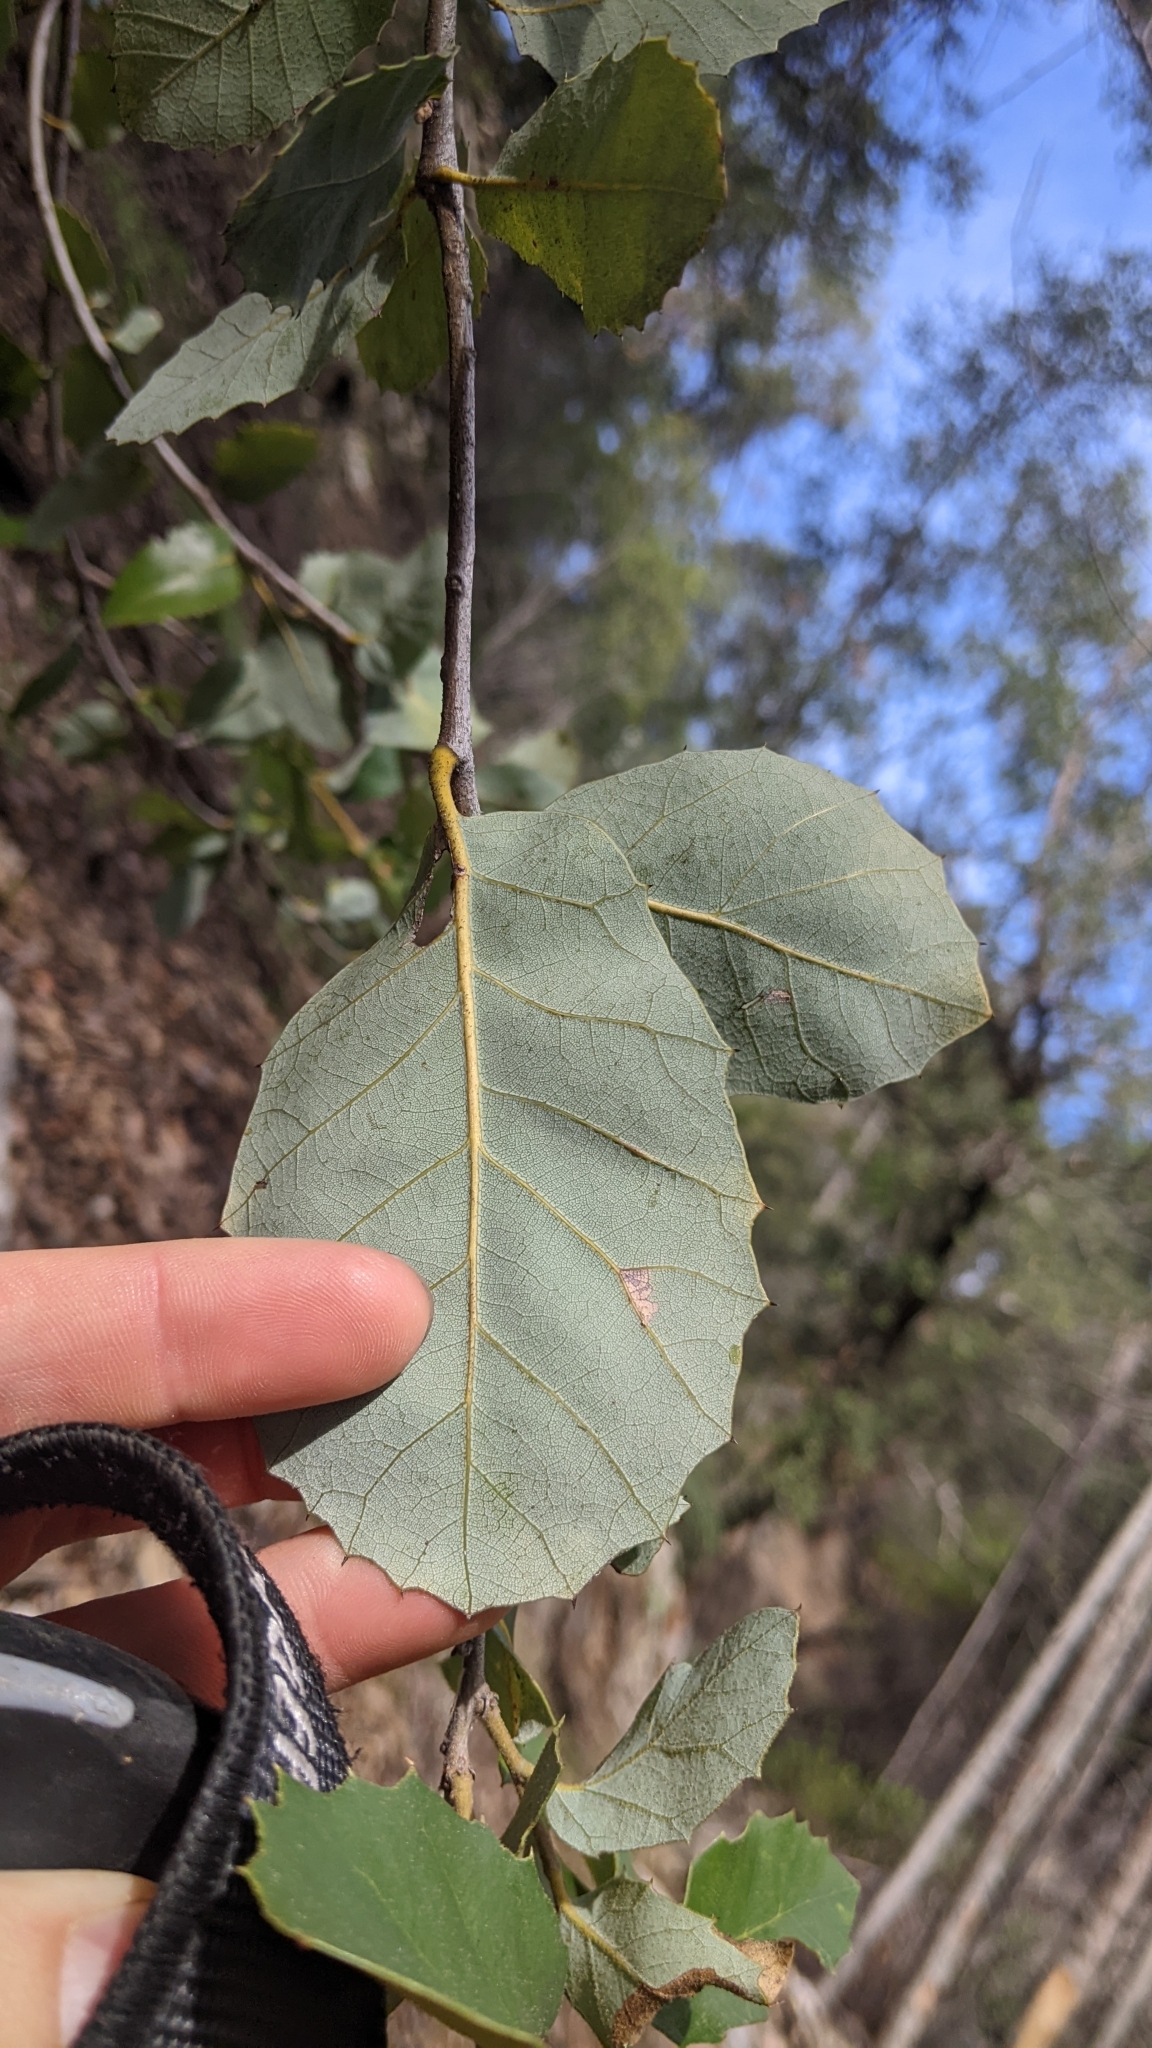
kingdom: Plantae
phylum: Tracheophyta
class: Magnoliopsida
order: Fagales
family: Fagaceae
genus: Quercus
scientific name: Quercus chrysolepis
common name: Canyon live oak
